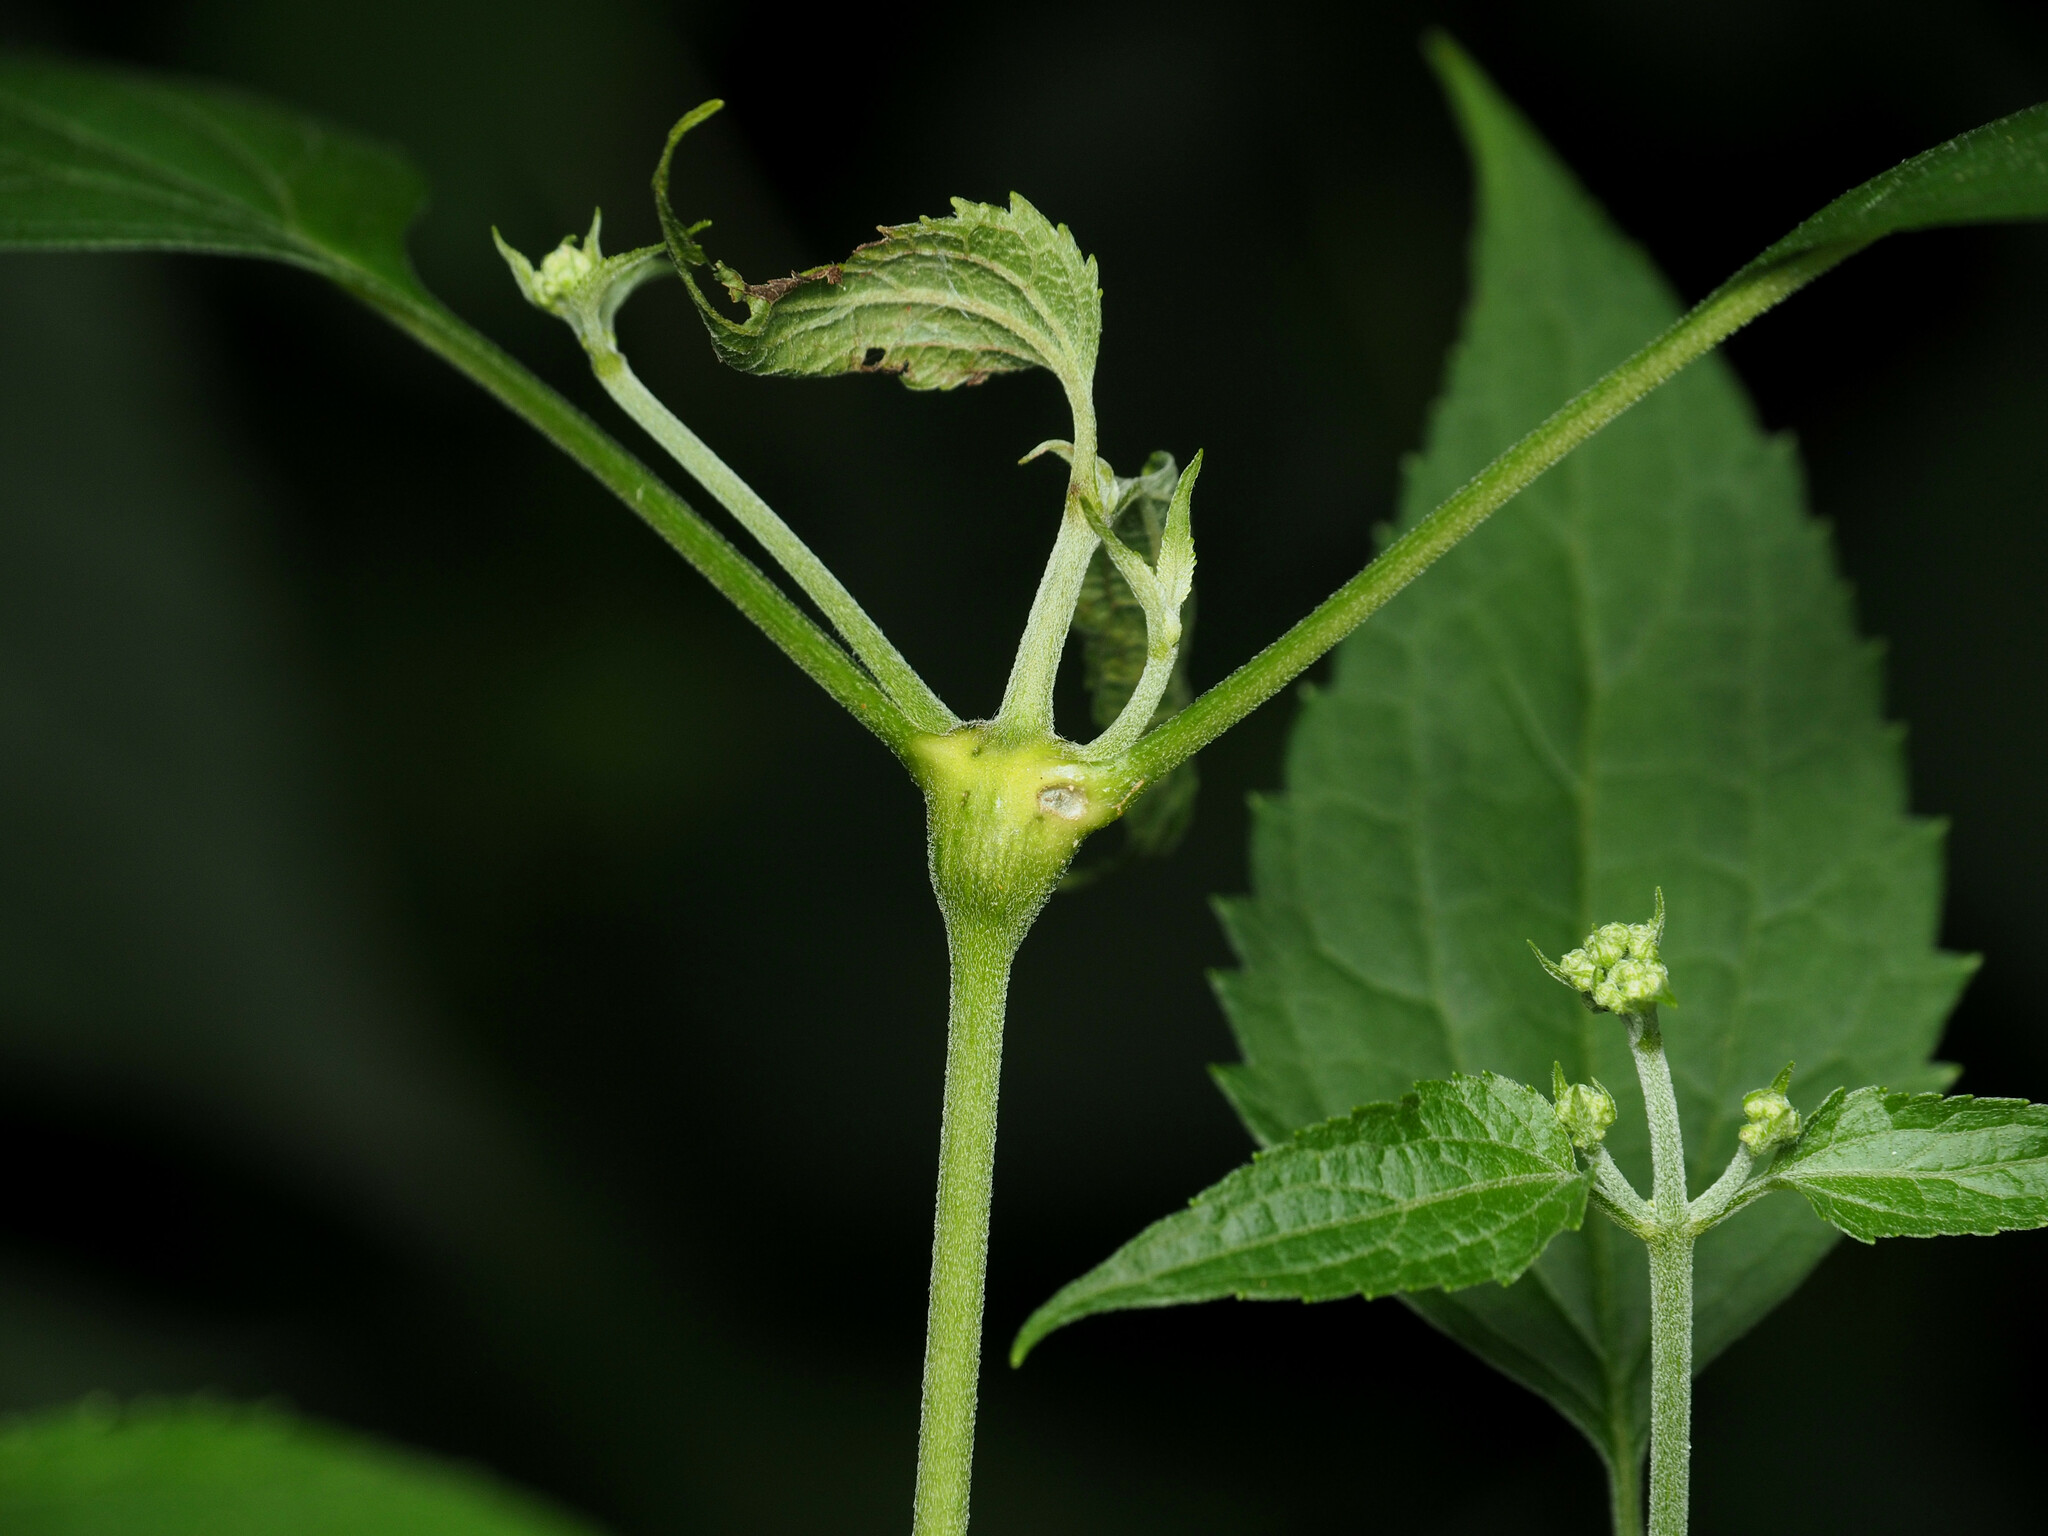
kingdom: Animalia
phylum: Arthropoda
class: Insecta
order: Diptera
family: Cecidomyiidae
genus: Neolasioptera
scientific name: Neolasioptera eupatorii
